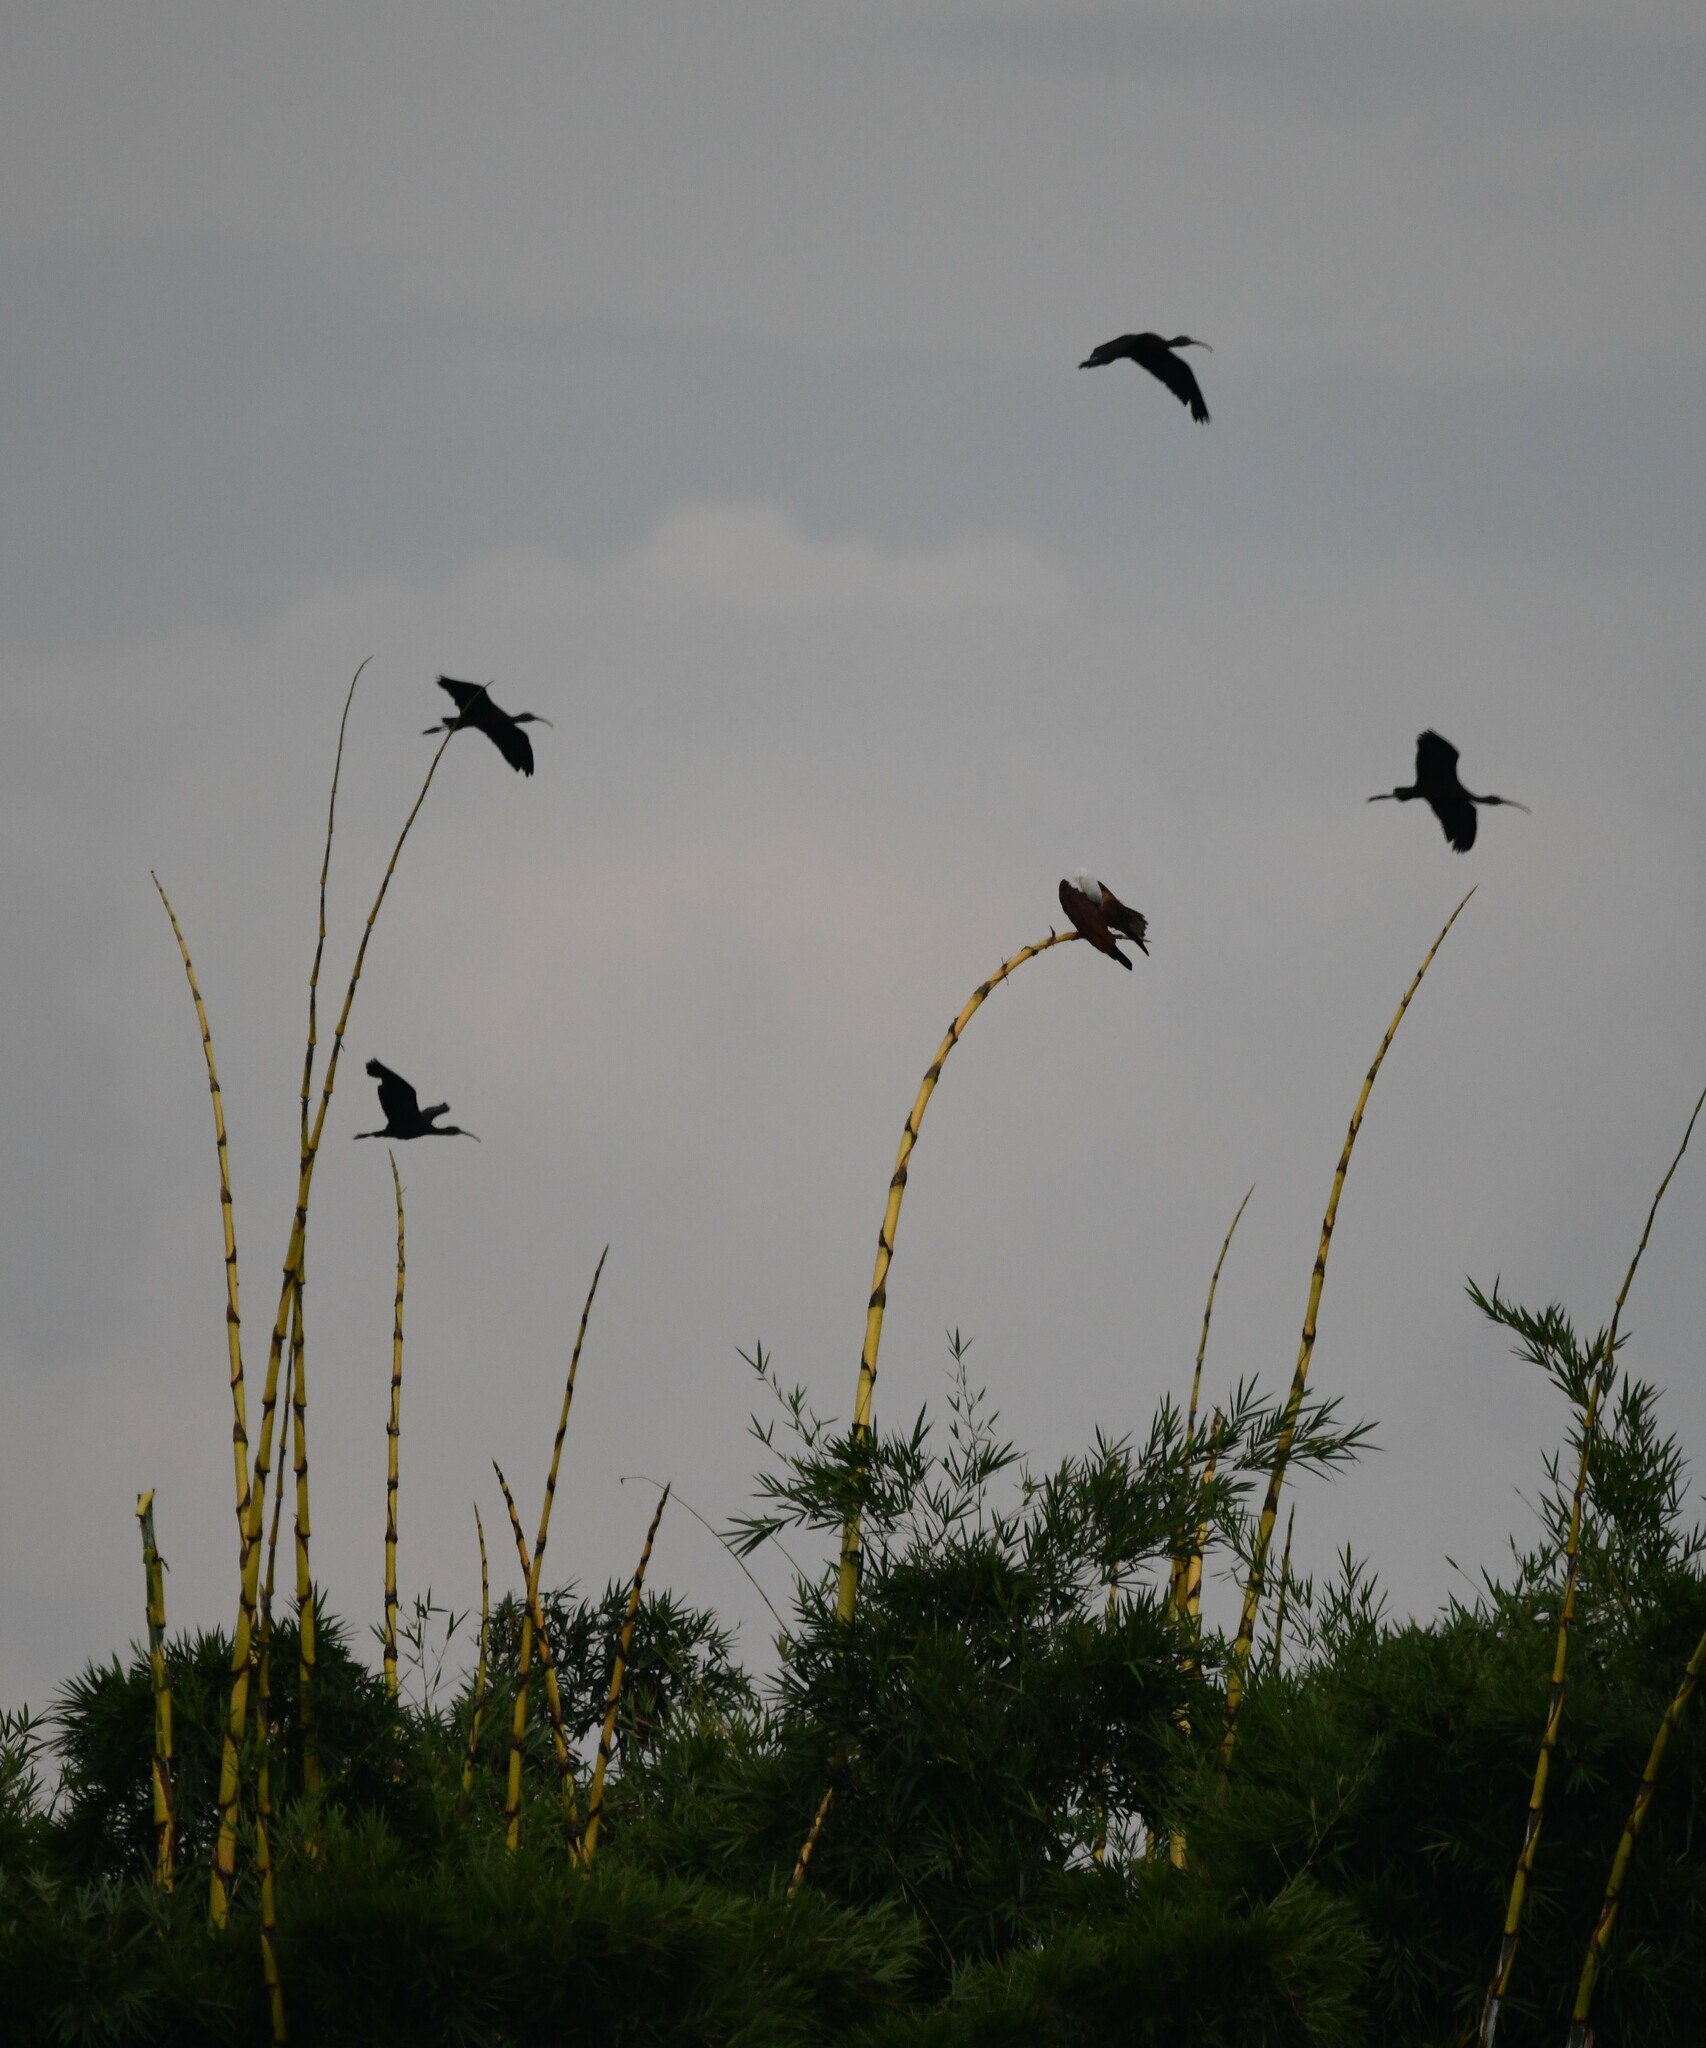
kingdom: Animalia
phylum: Chordata
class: Aves
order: Pelecaniformes
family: Threskiornithidae
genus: Plegadis
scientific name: Plegadis falcinellus
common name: Glossy ibis
